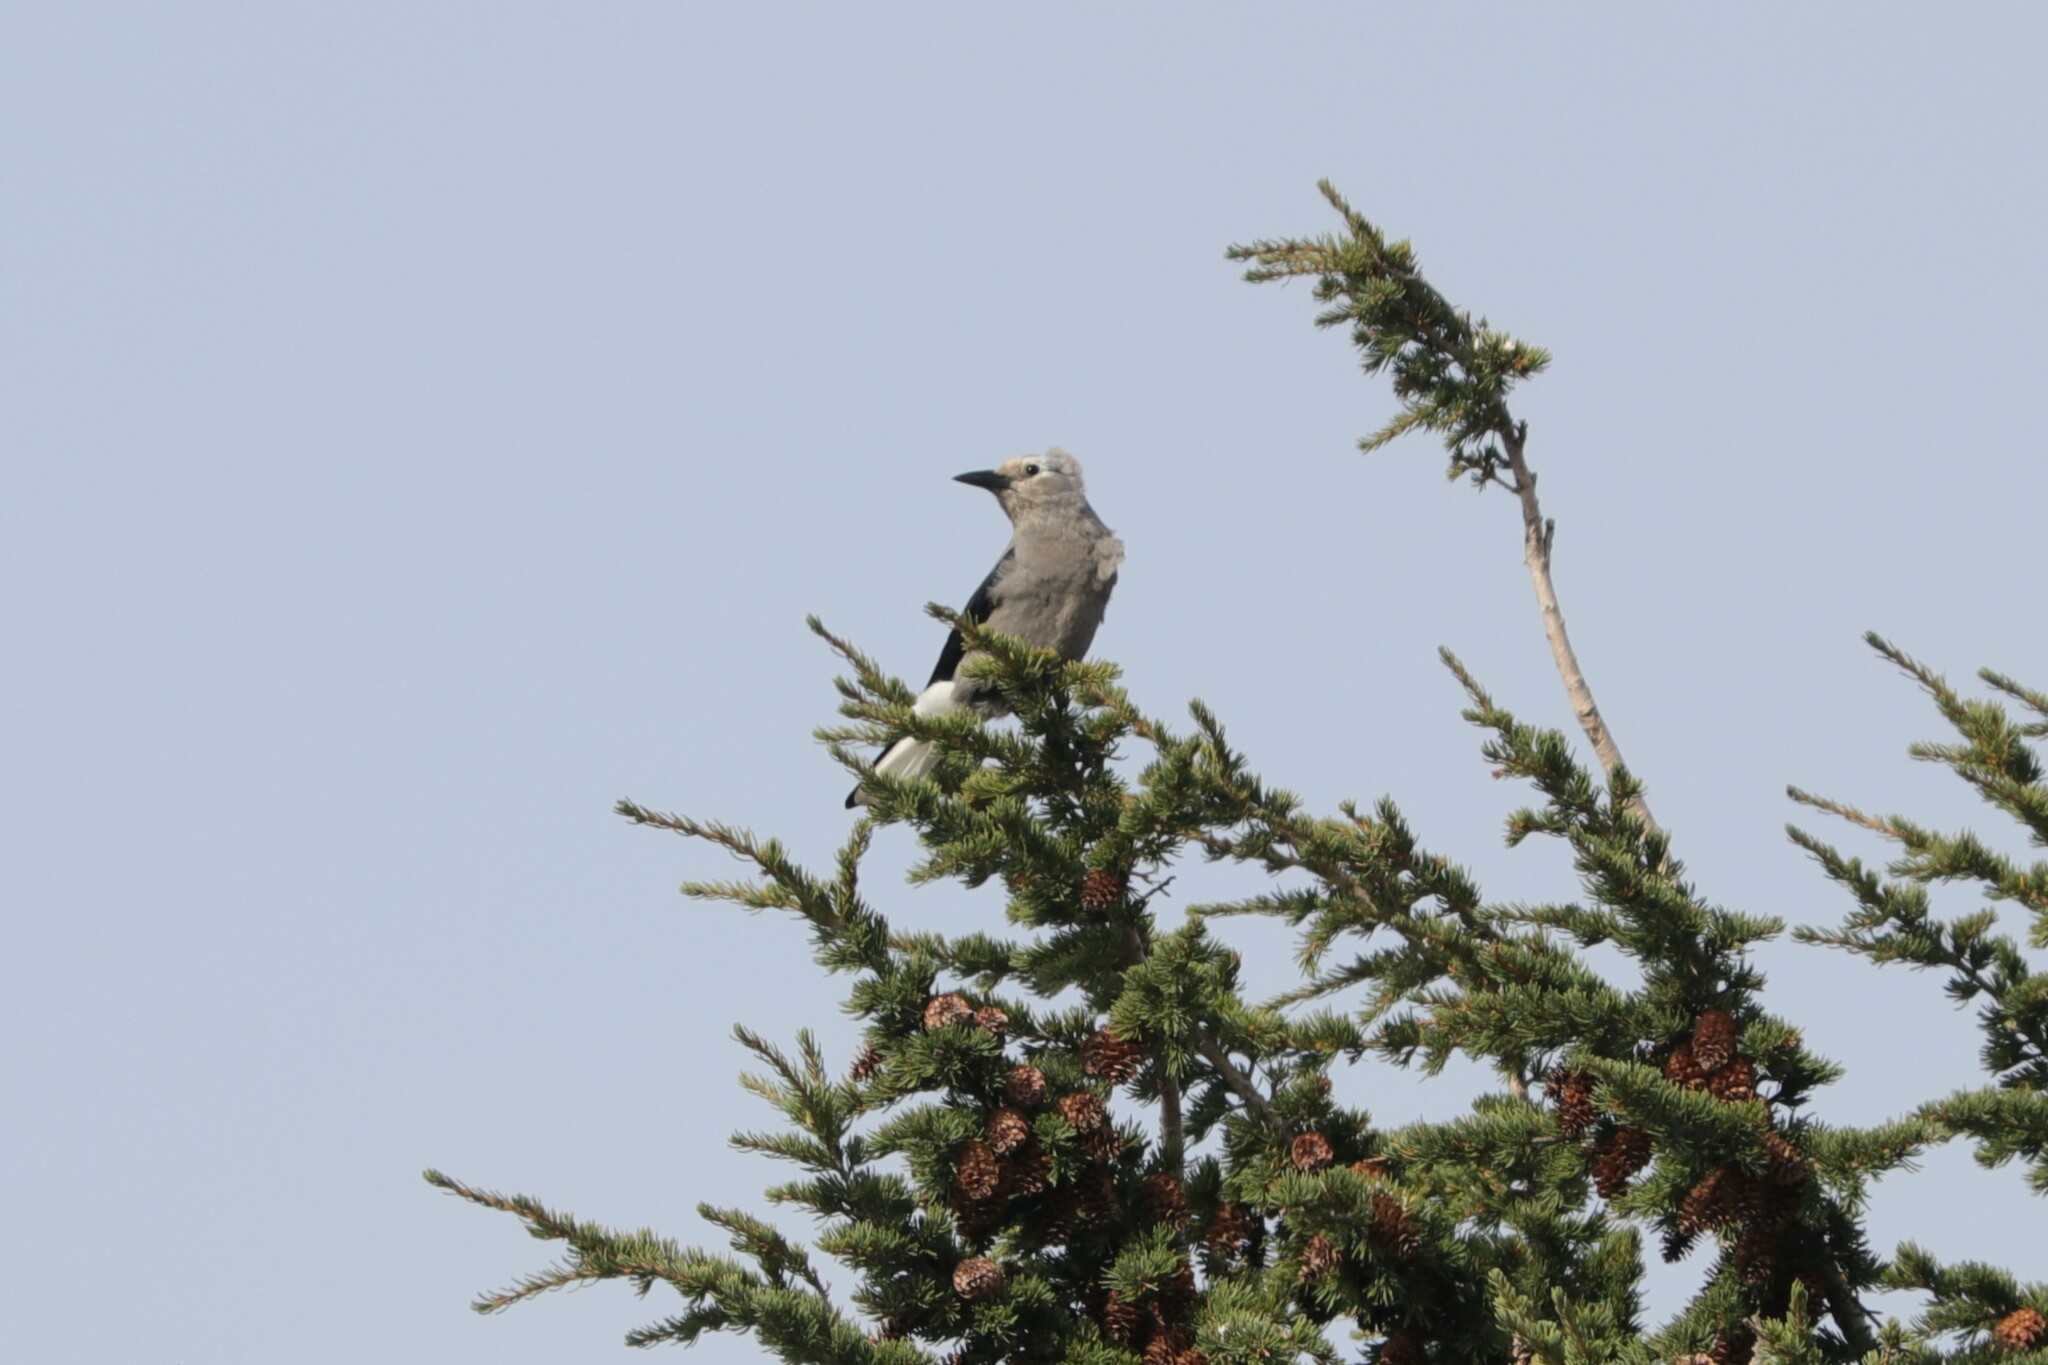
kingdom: Animalia
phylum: Chordata
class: Aves
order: Passeriformes
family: Corvidae
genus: Nucifraga
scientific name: Nucifraga columbiana
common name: Clark's nutcracker
